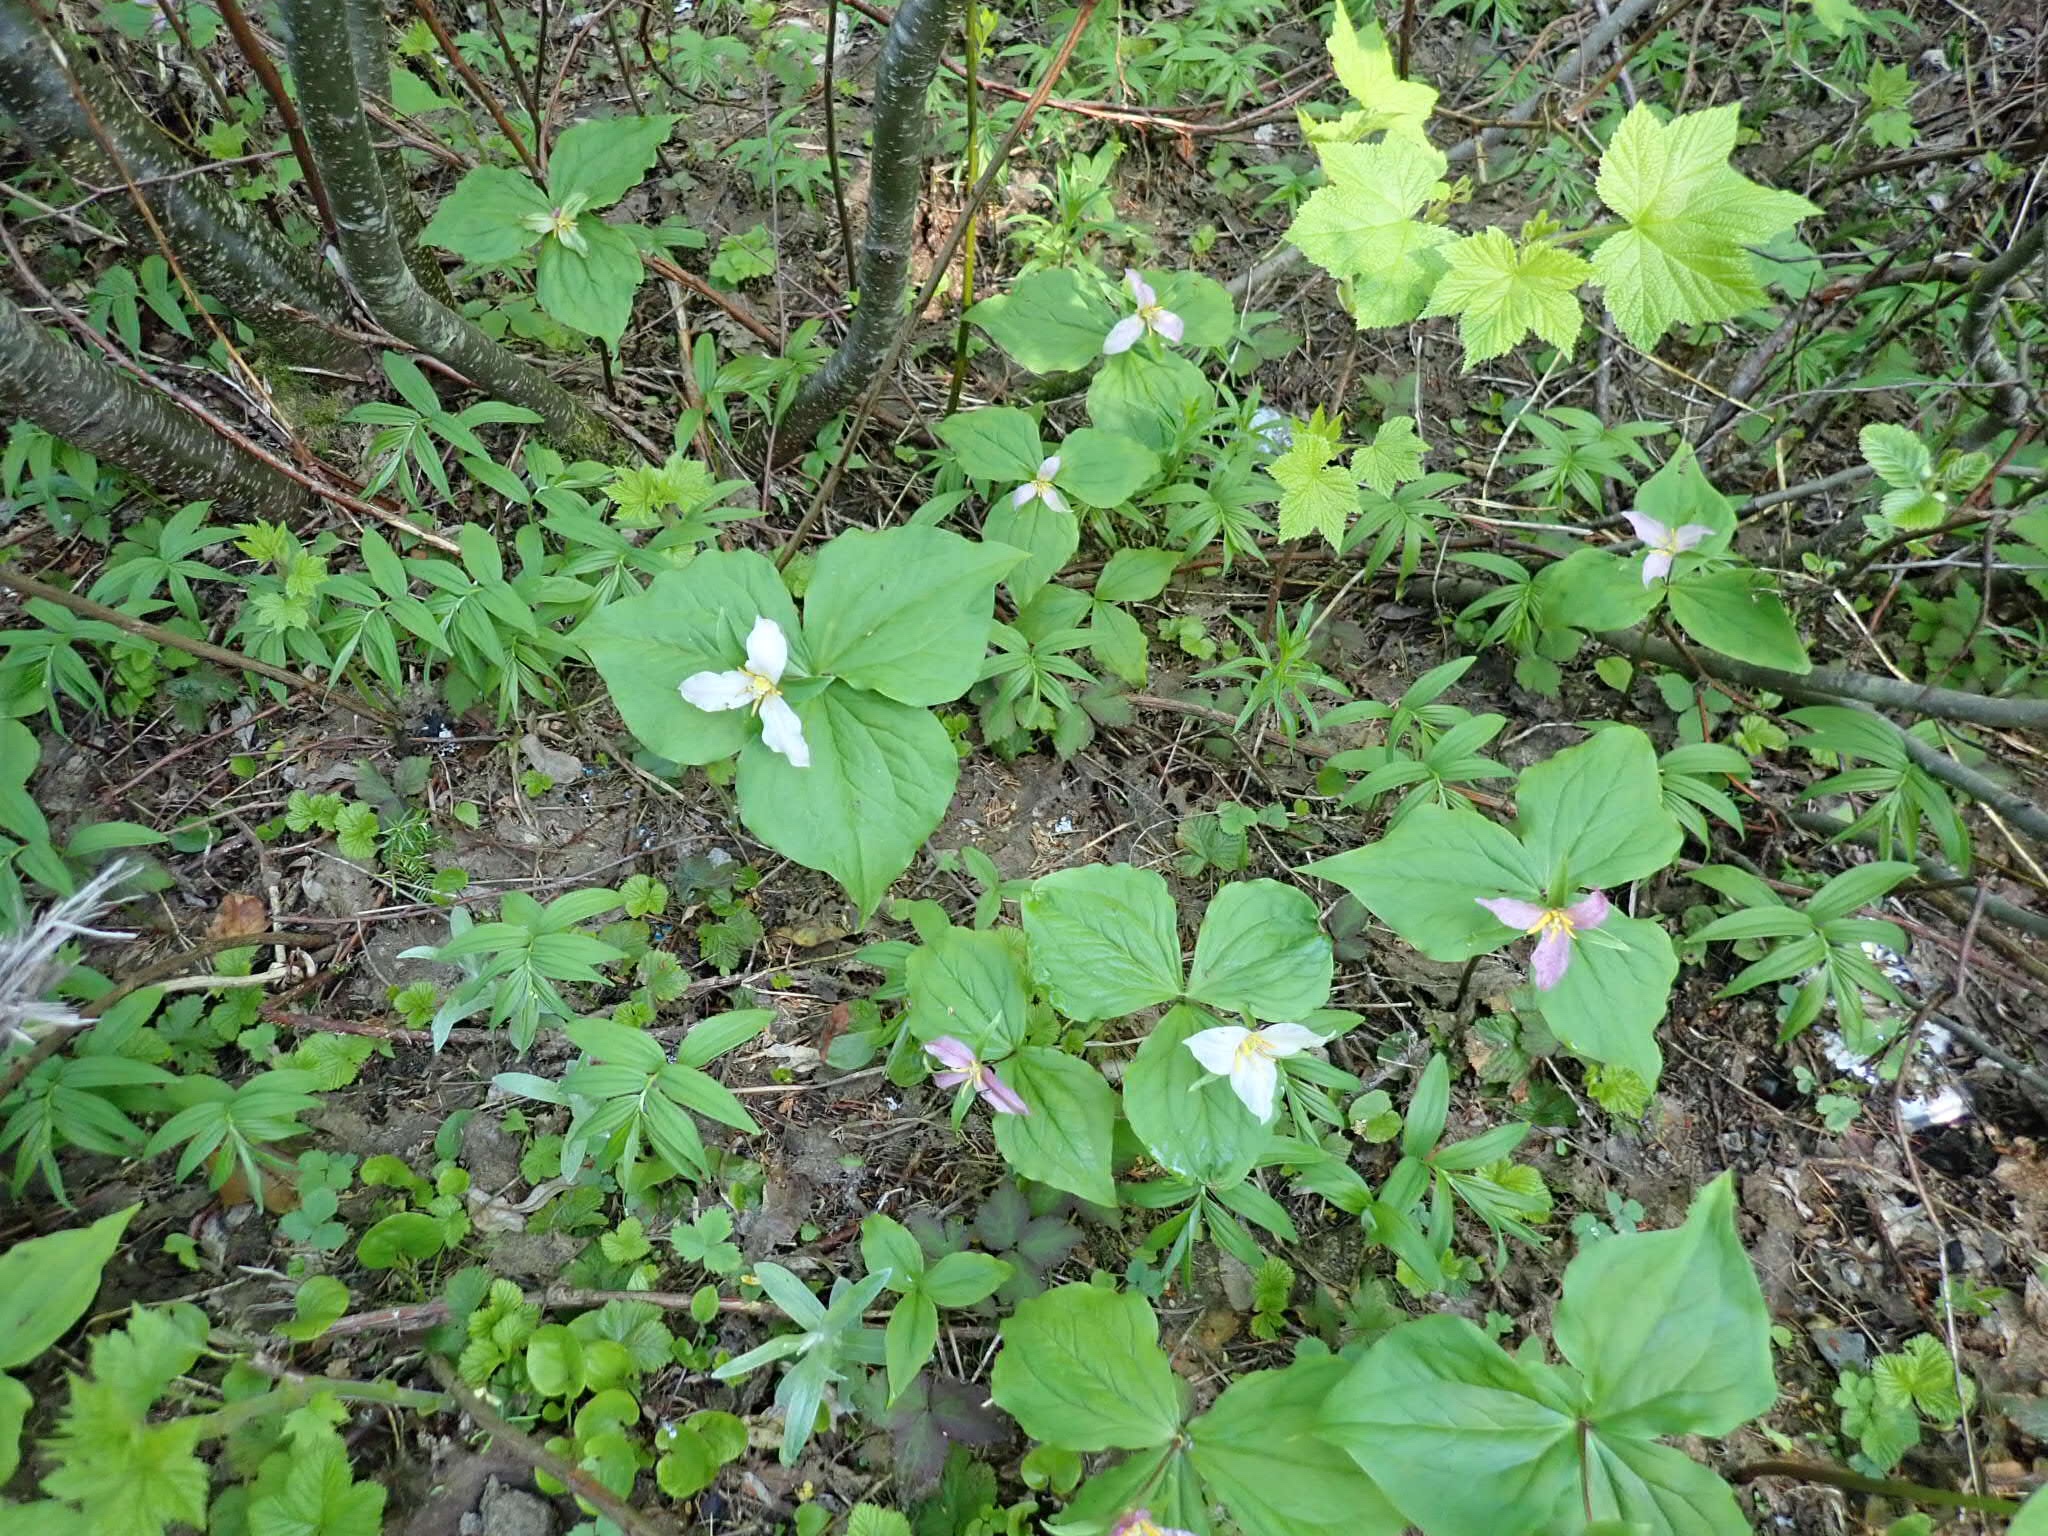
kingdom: Plantae
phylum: Tracheophyta
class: Liliopsida
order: Liliales
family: Melanthiaceae
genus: Trillium
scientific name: Trillium ovatum
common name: Pacific trillium
